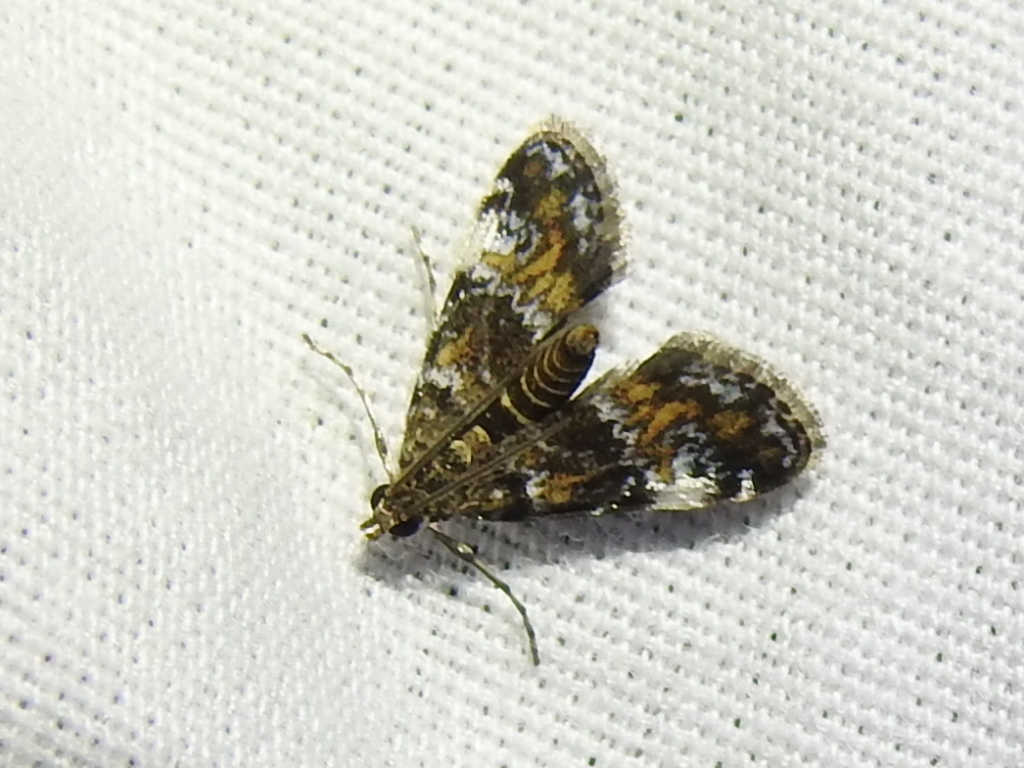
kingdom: Animalia
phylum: Arthropoda
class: Insecta
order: Lepidoptera
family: Crambidae
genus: Elophila
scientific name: Elophila obliteralis
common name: Waterlily leafcutter moth
